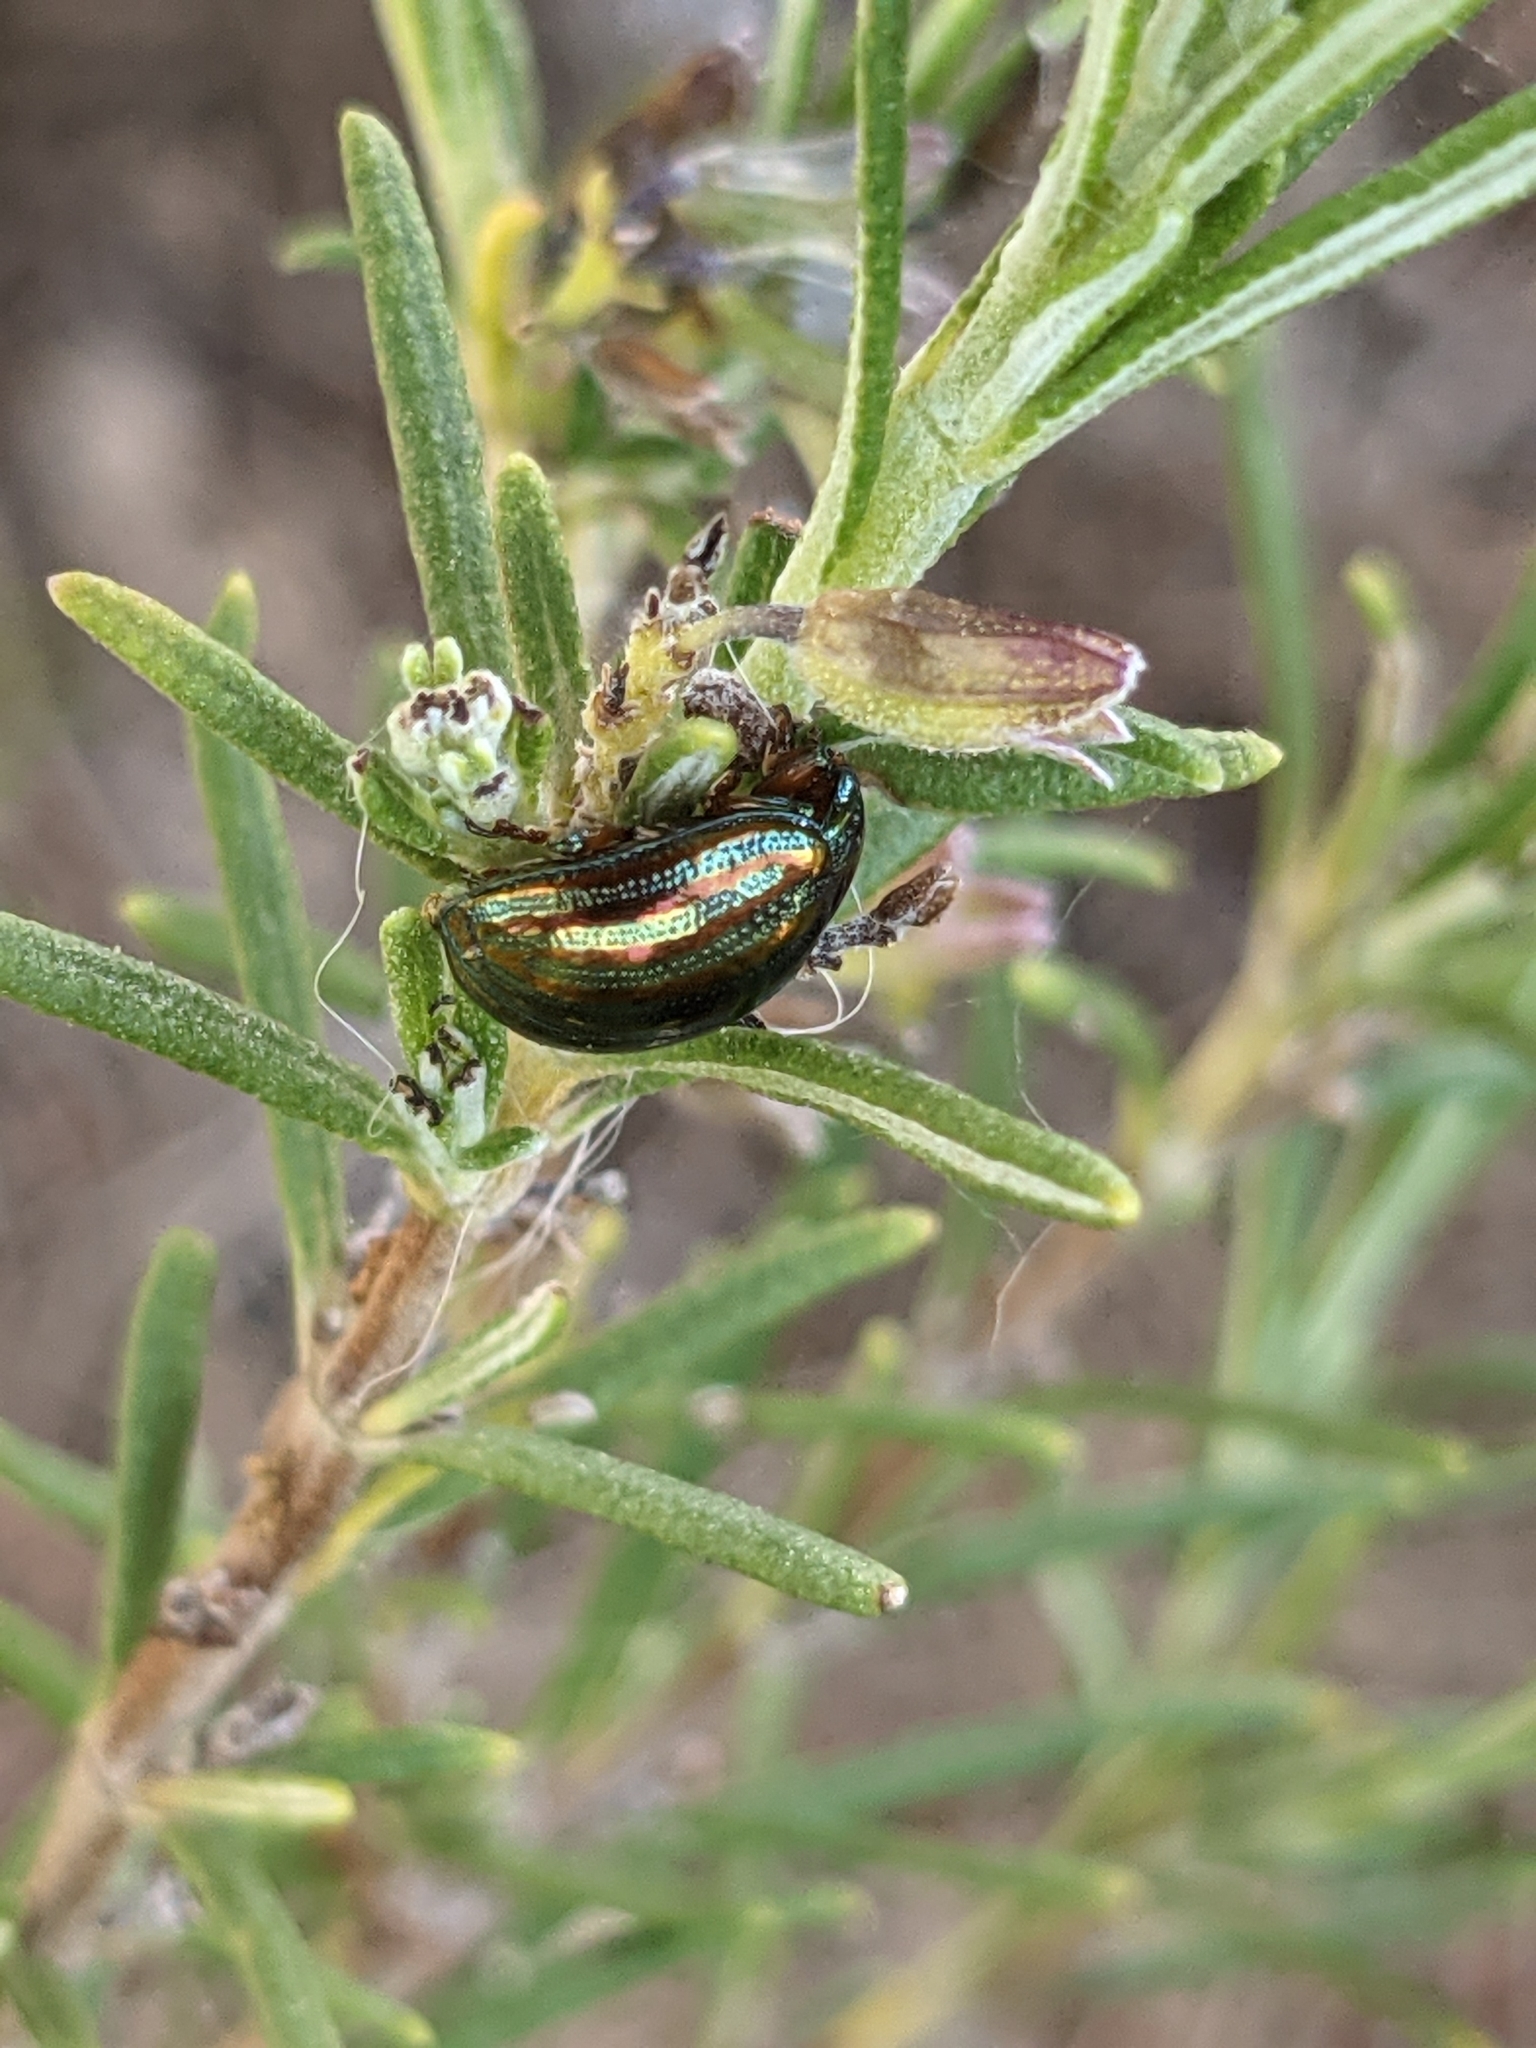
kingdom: Animalia
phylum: Arthropoda
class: Insecta
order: Coleoptera
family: Chrysomelidae
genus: Chrysolina
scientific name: Chrysolina americana
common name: Rosemary beetle
